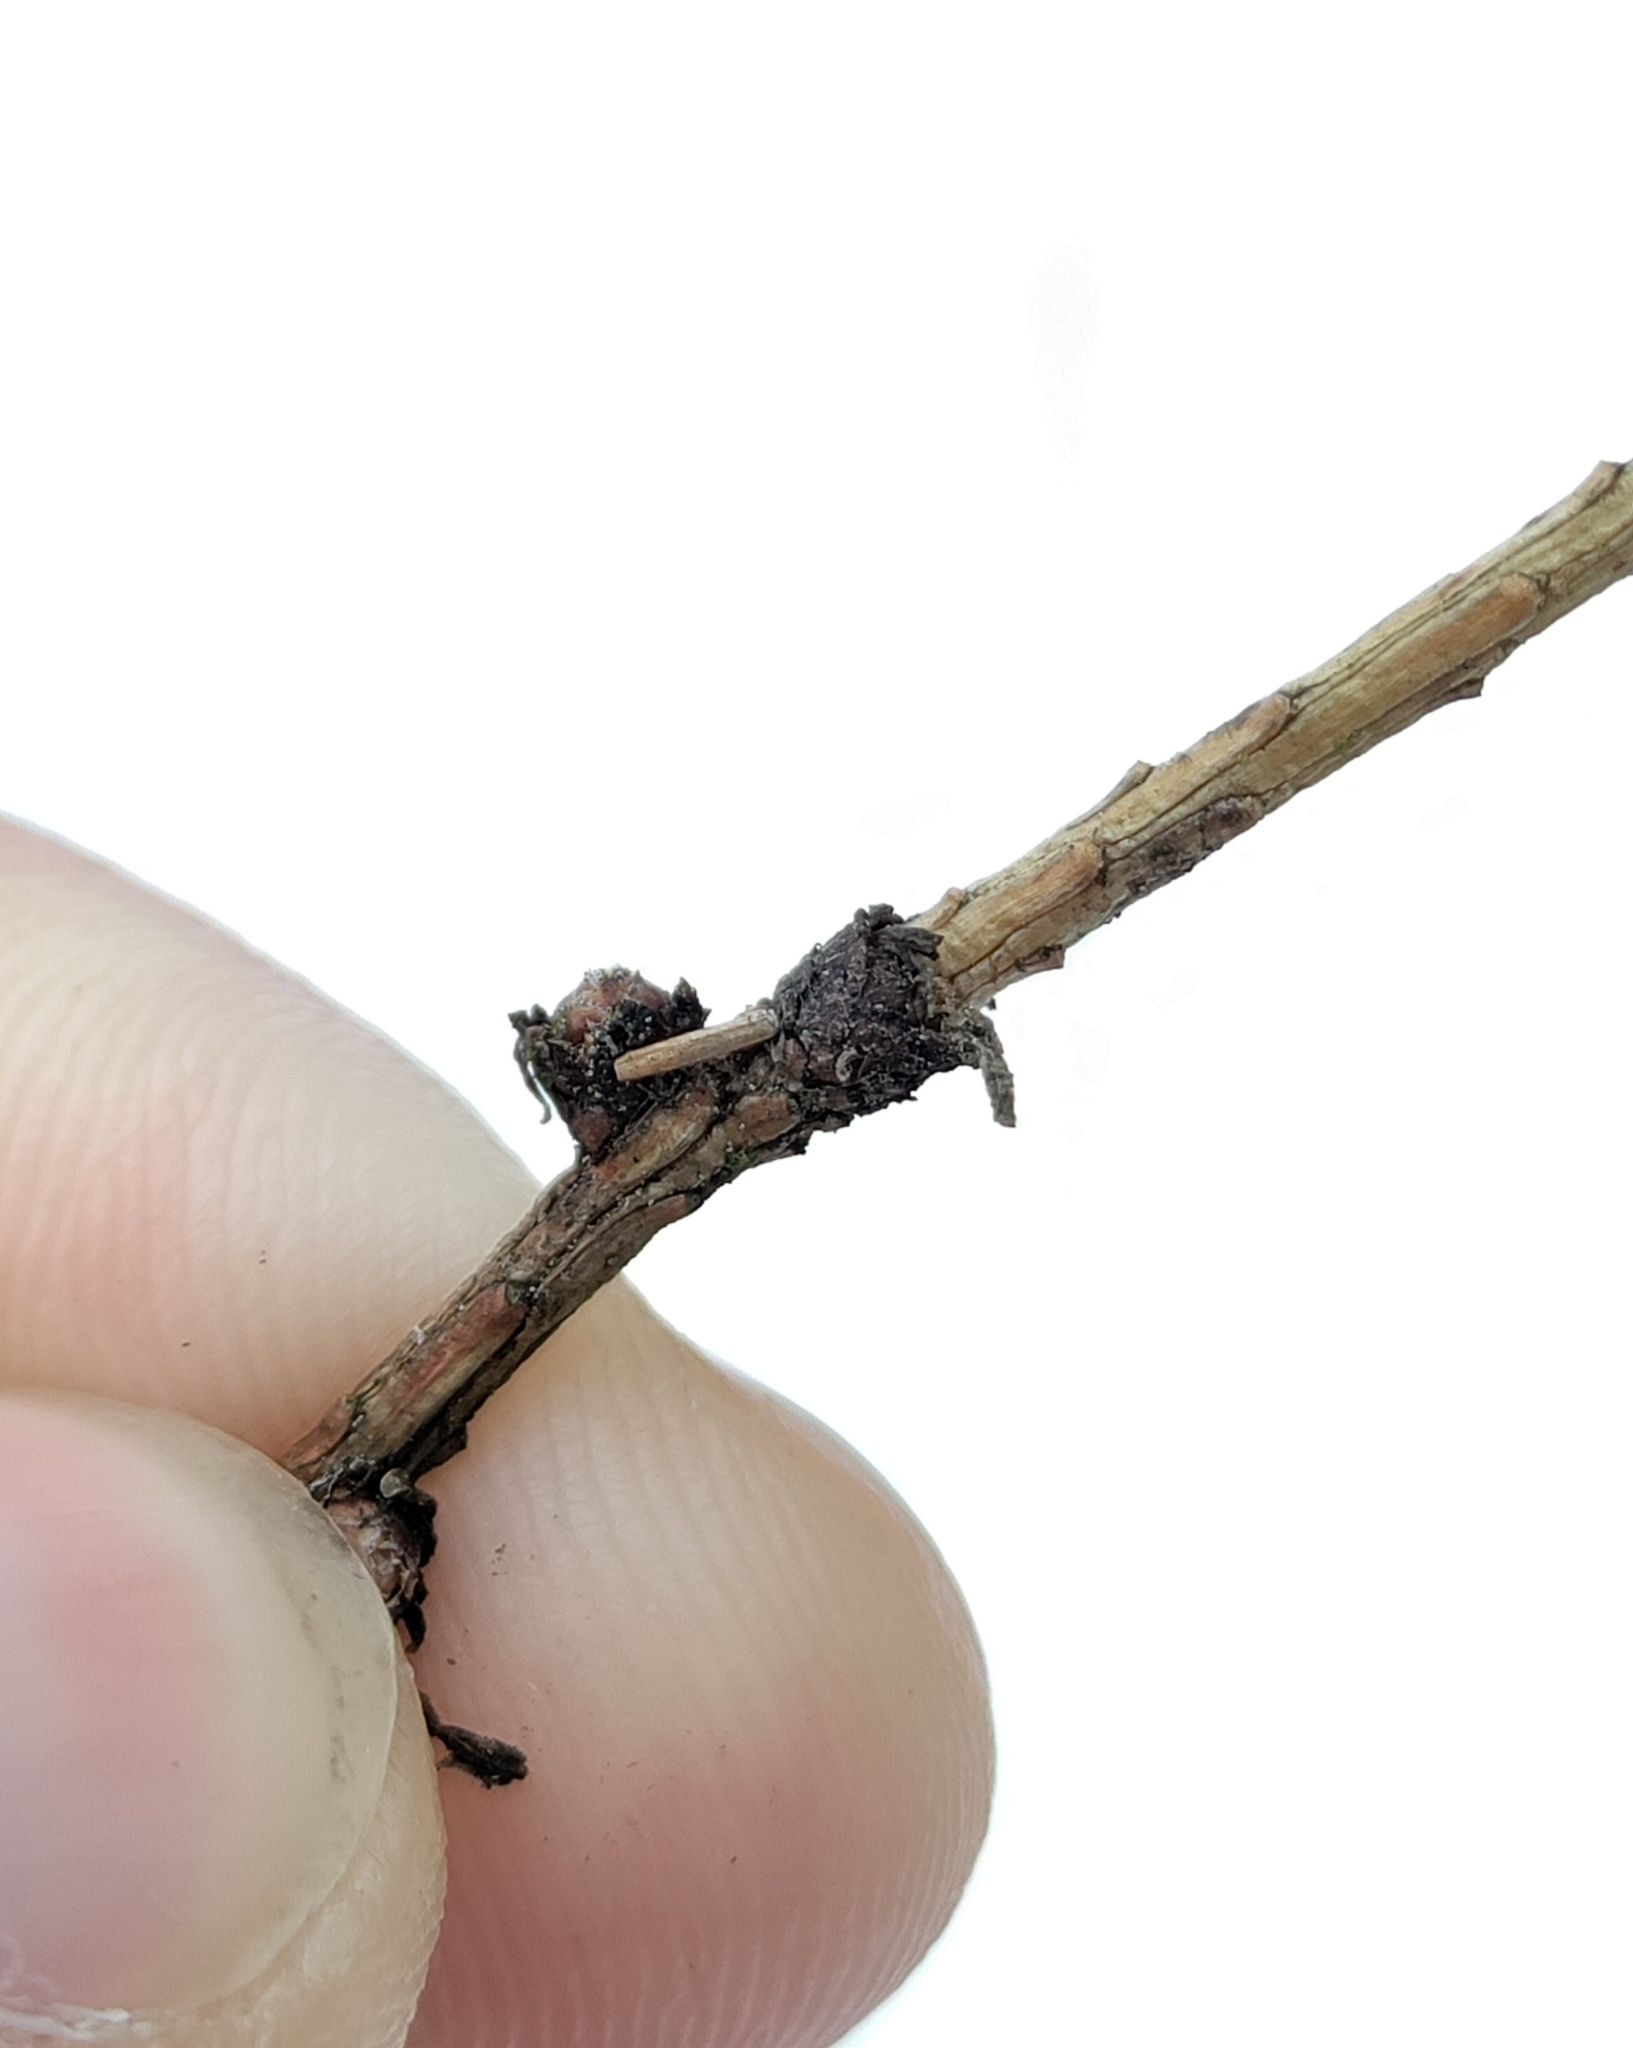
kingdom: Animalia
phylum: Arthropoda
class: Insecta
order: Lepidoptera
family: Coleophoridae
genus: Coleophora
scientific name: Coleophora laricella
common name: Larch case-bearer
